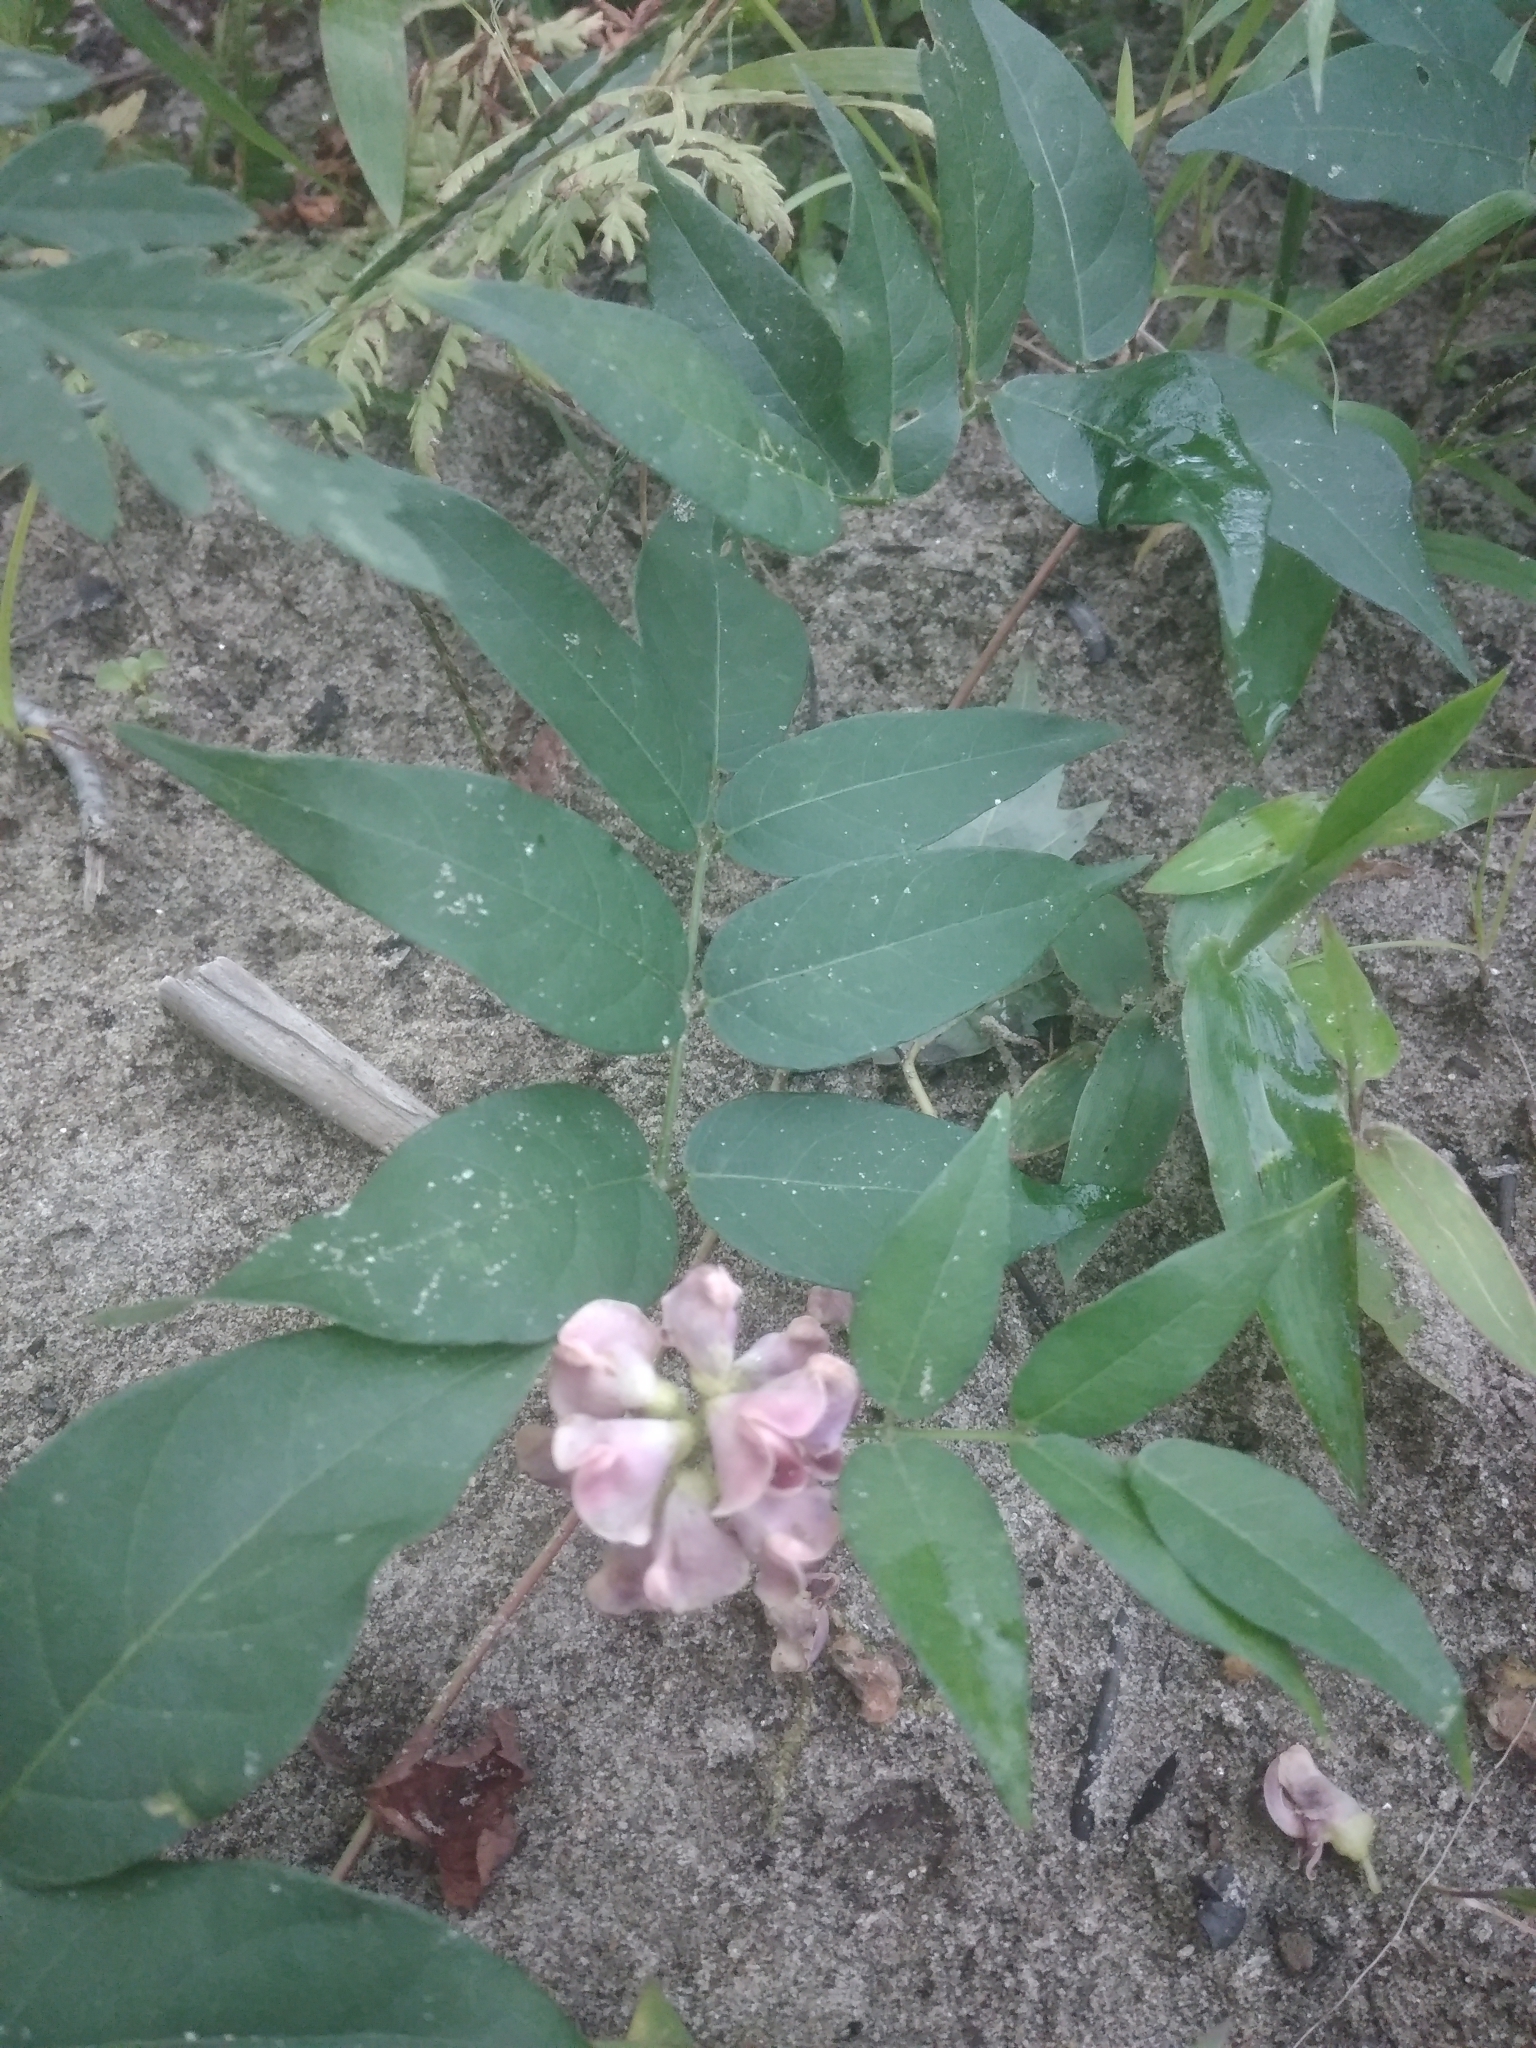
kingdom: Plantae
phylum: Tracheophyta
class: Magnoliopsida
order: Fabales
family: Fabaceae
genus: Apios
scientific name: Apios americana
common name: American potato-bean
